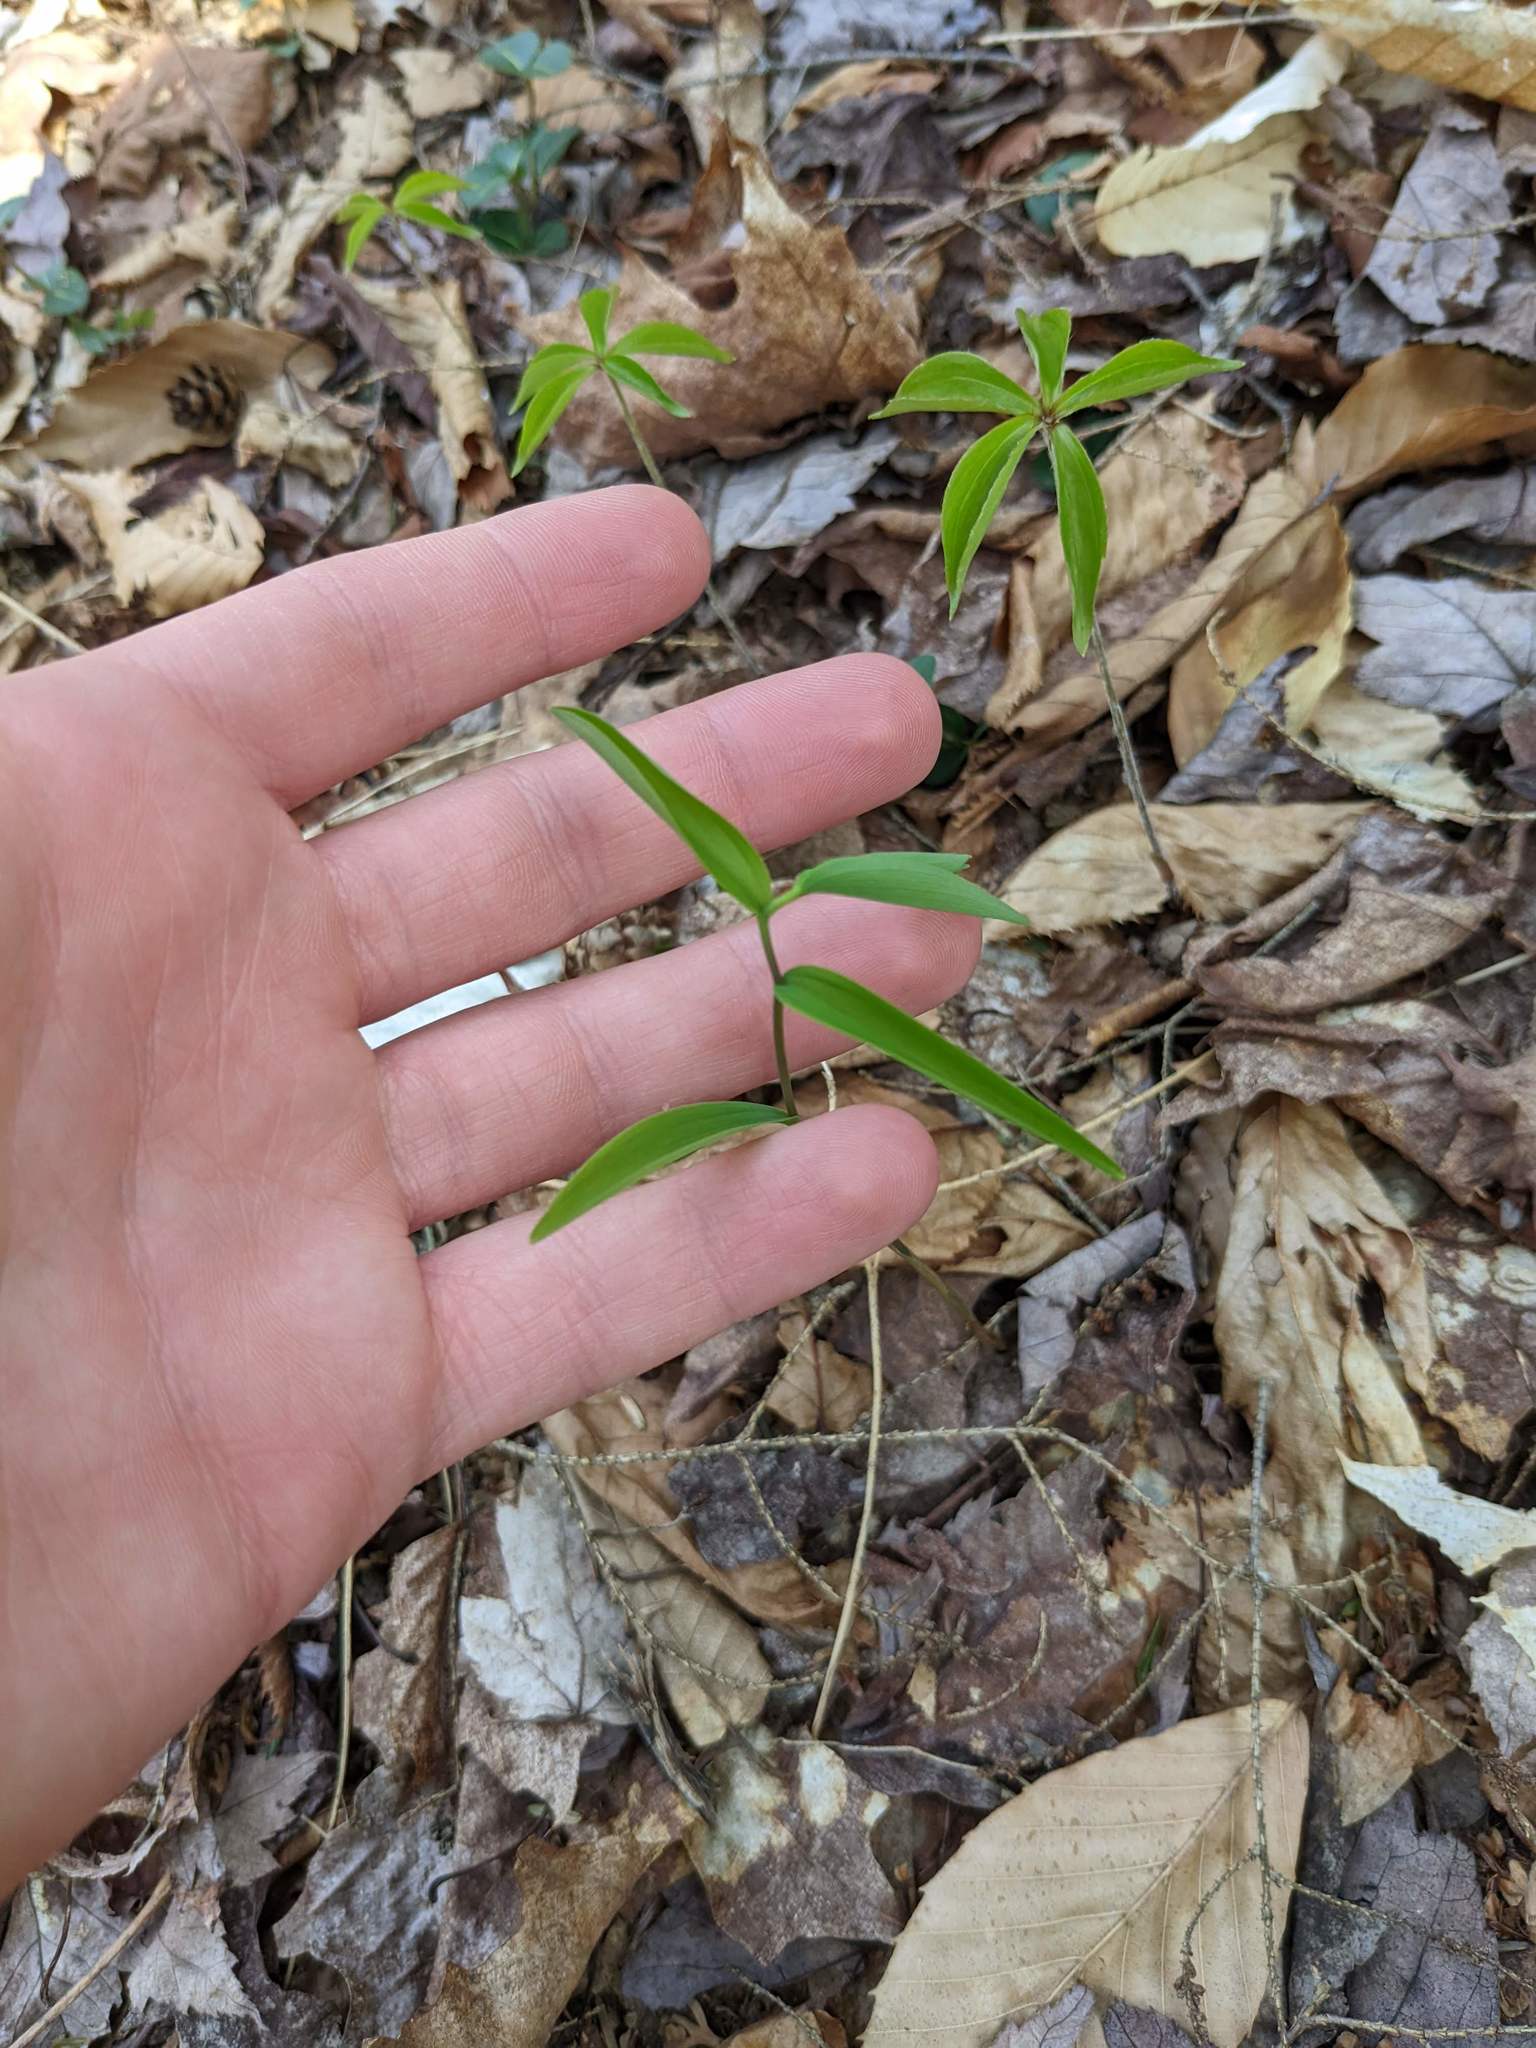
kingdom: Plantae
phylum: Tracheophyta
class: Liliopsida
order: Liliales
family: Colchicaceae
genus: Uvularia
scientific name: Uvularia sessilifolia
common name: Straw-lily
